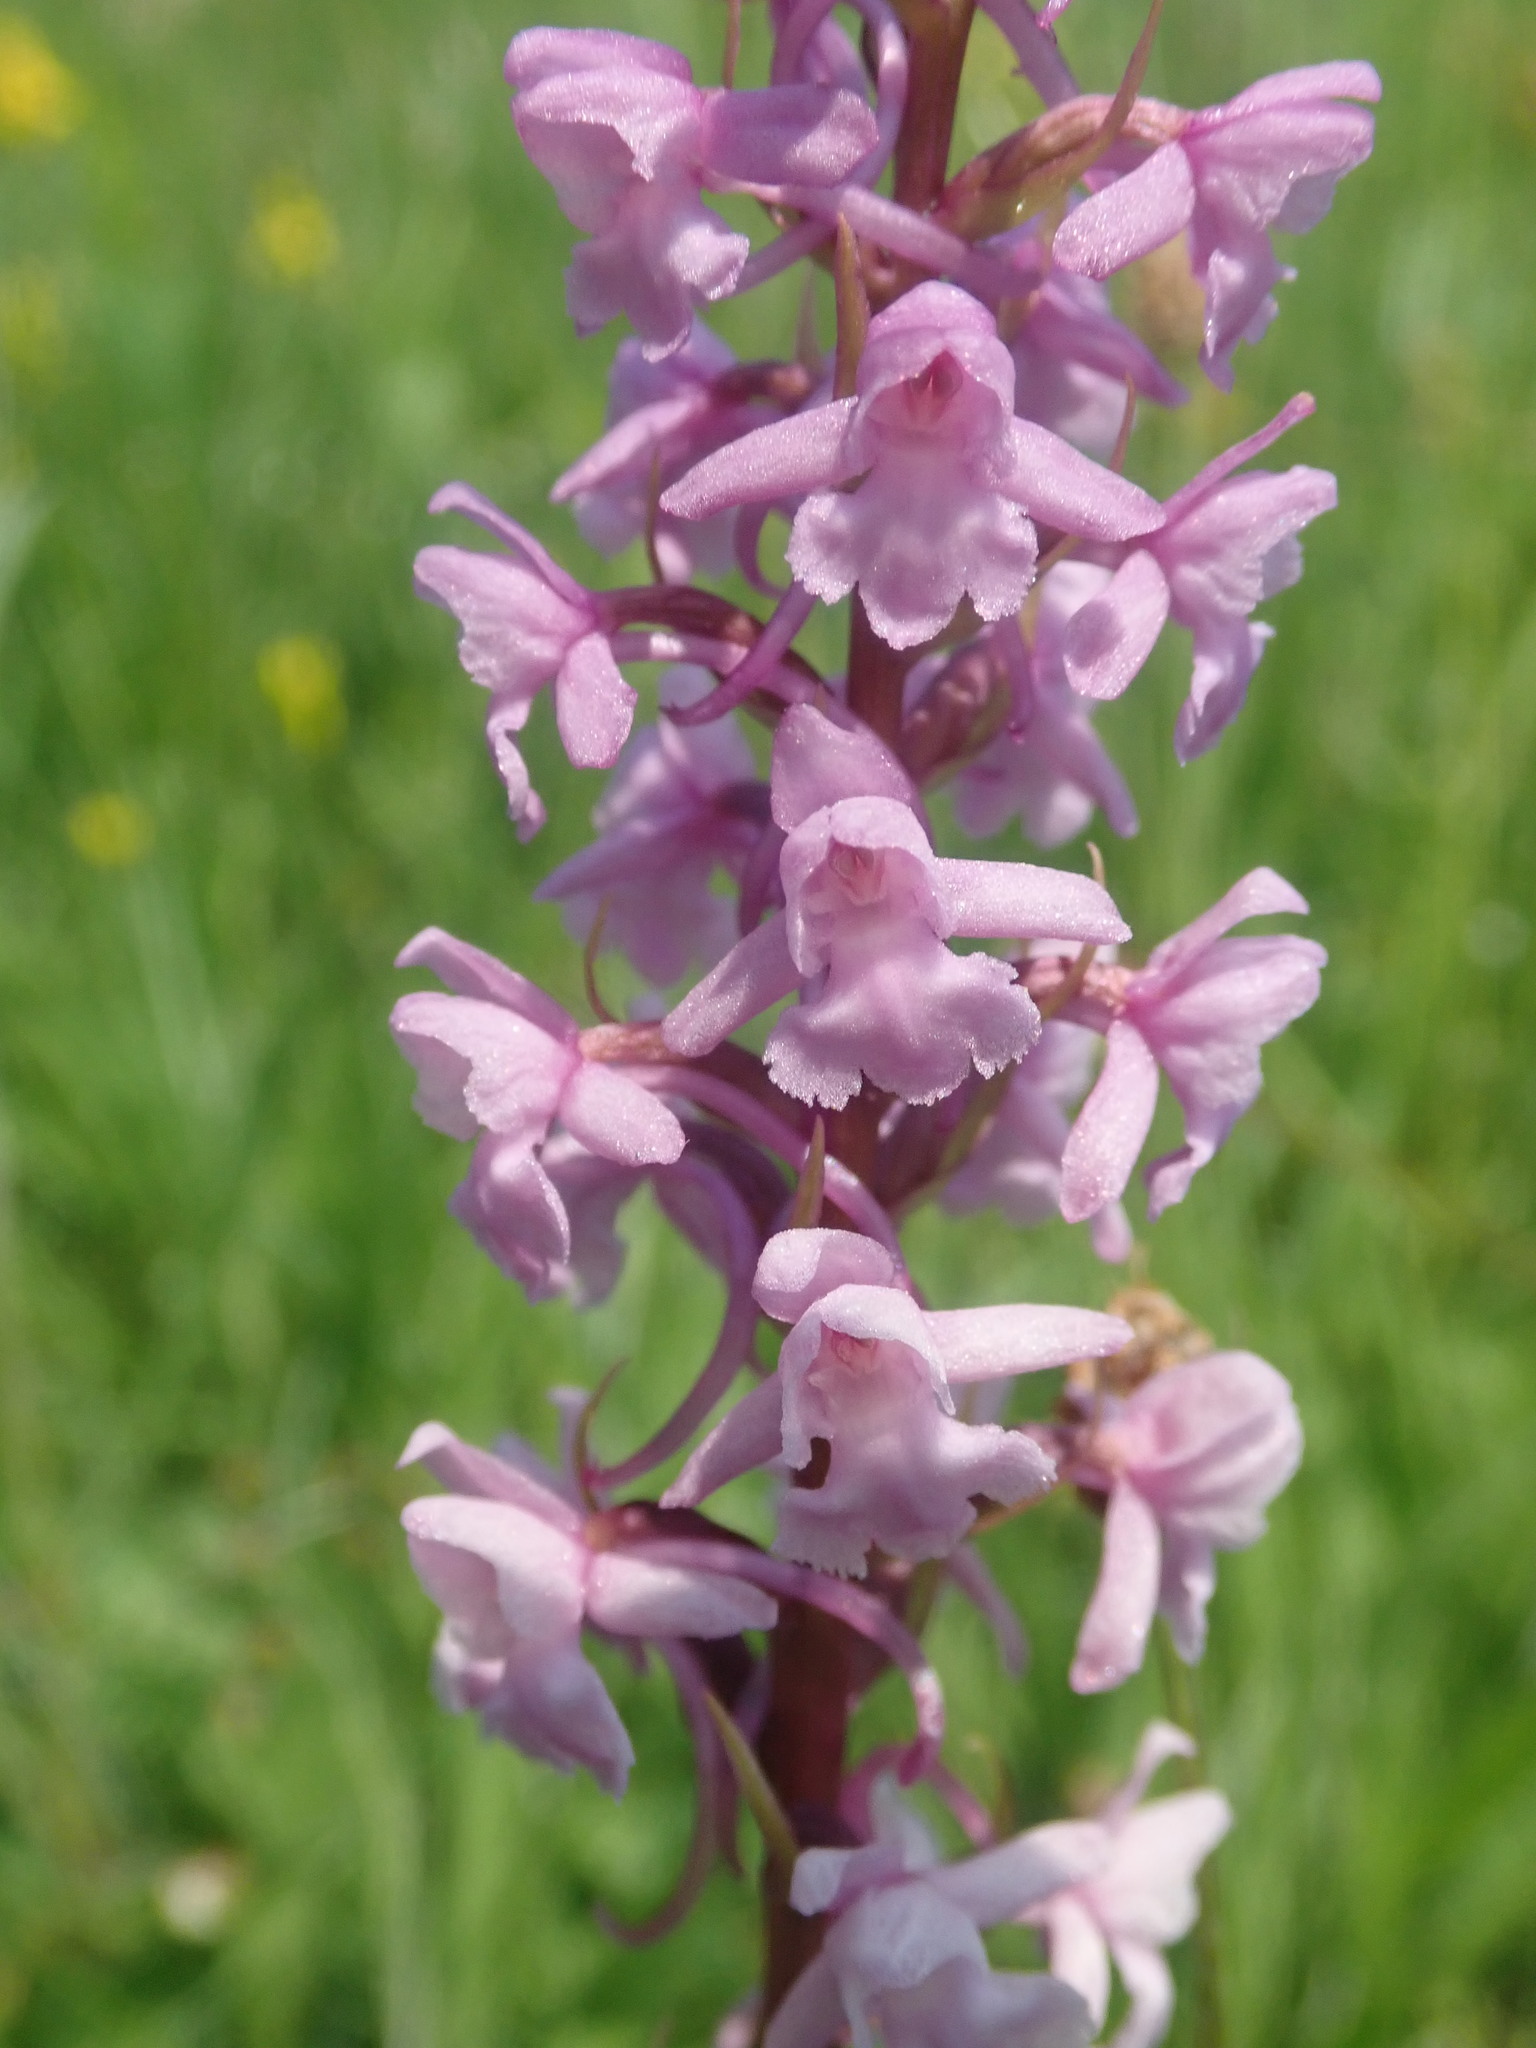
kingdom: Plantae
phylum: Tracheophyta
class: Liliopsida
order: Asparagales
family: Orchidaceae
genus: Gymnadenia
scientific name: Gymnadenia conopsea
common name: Fragrant orchid
